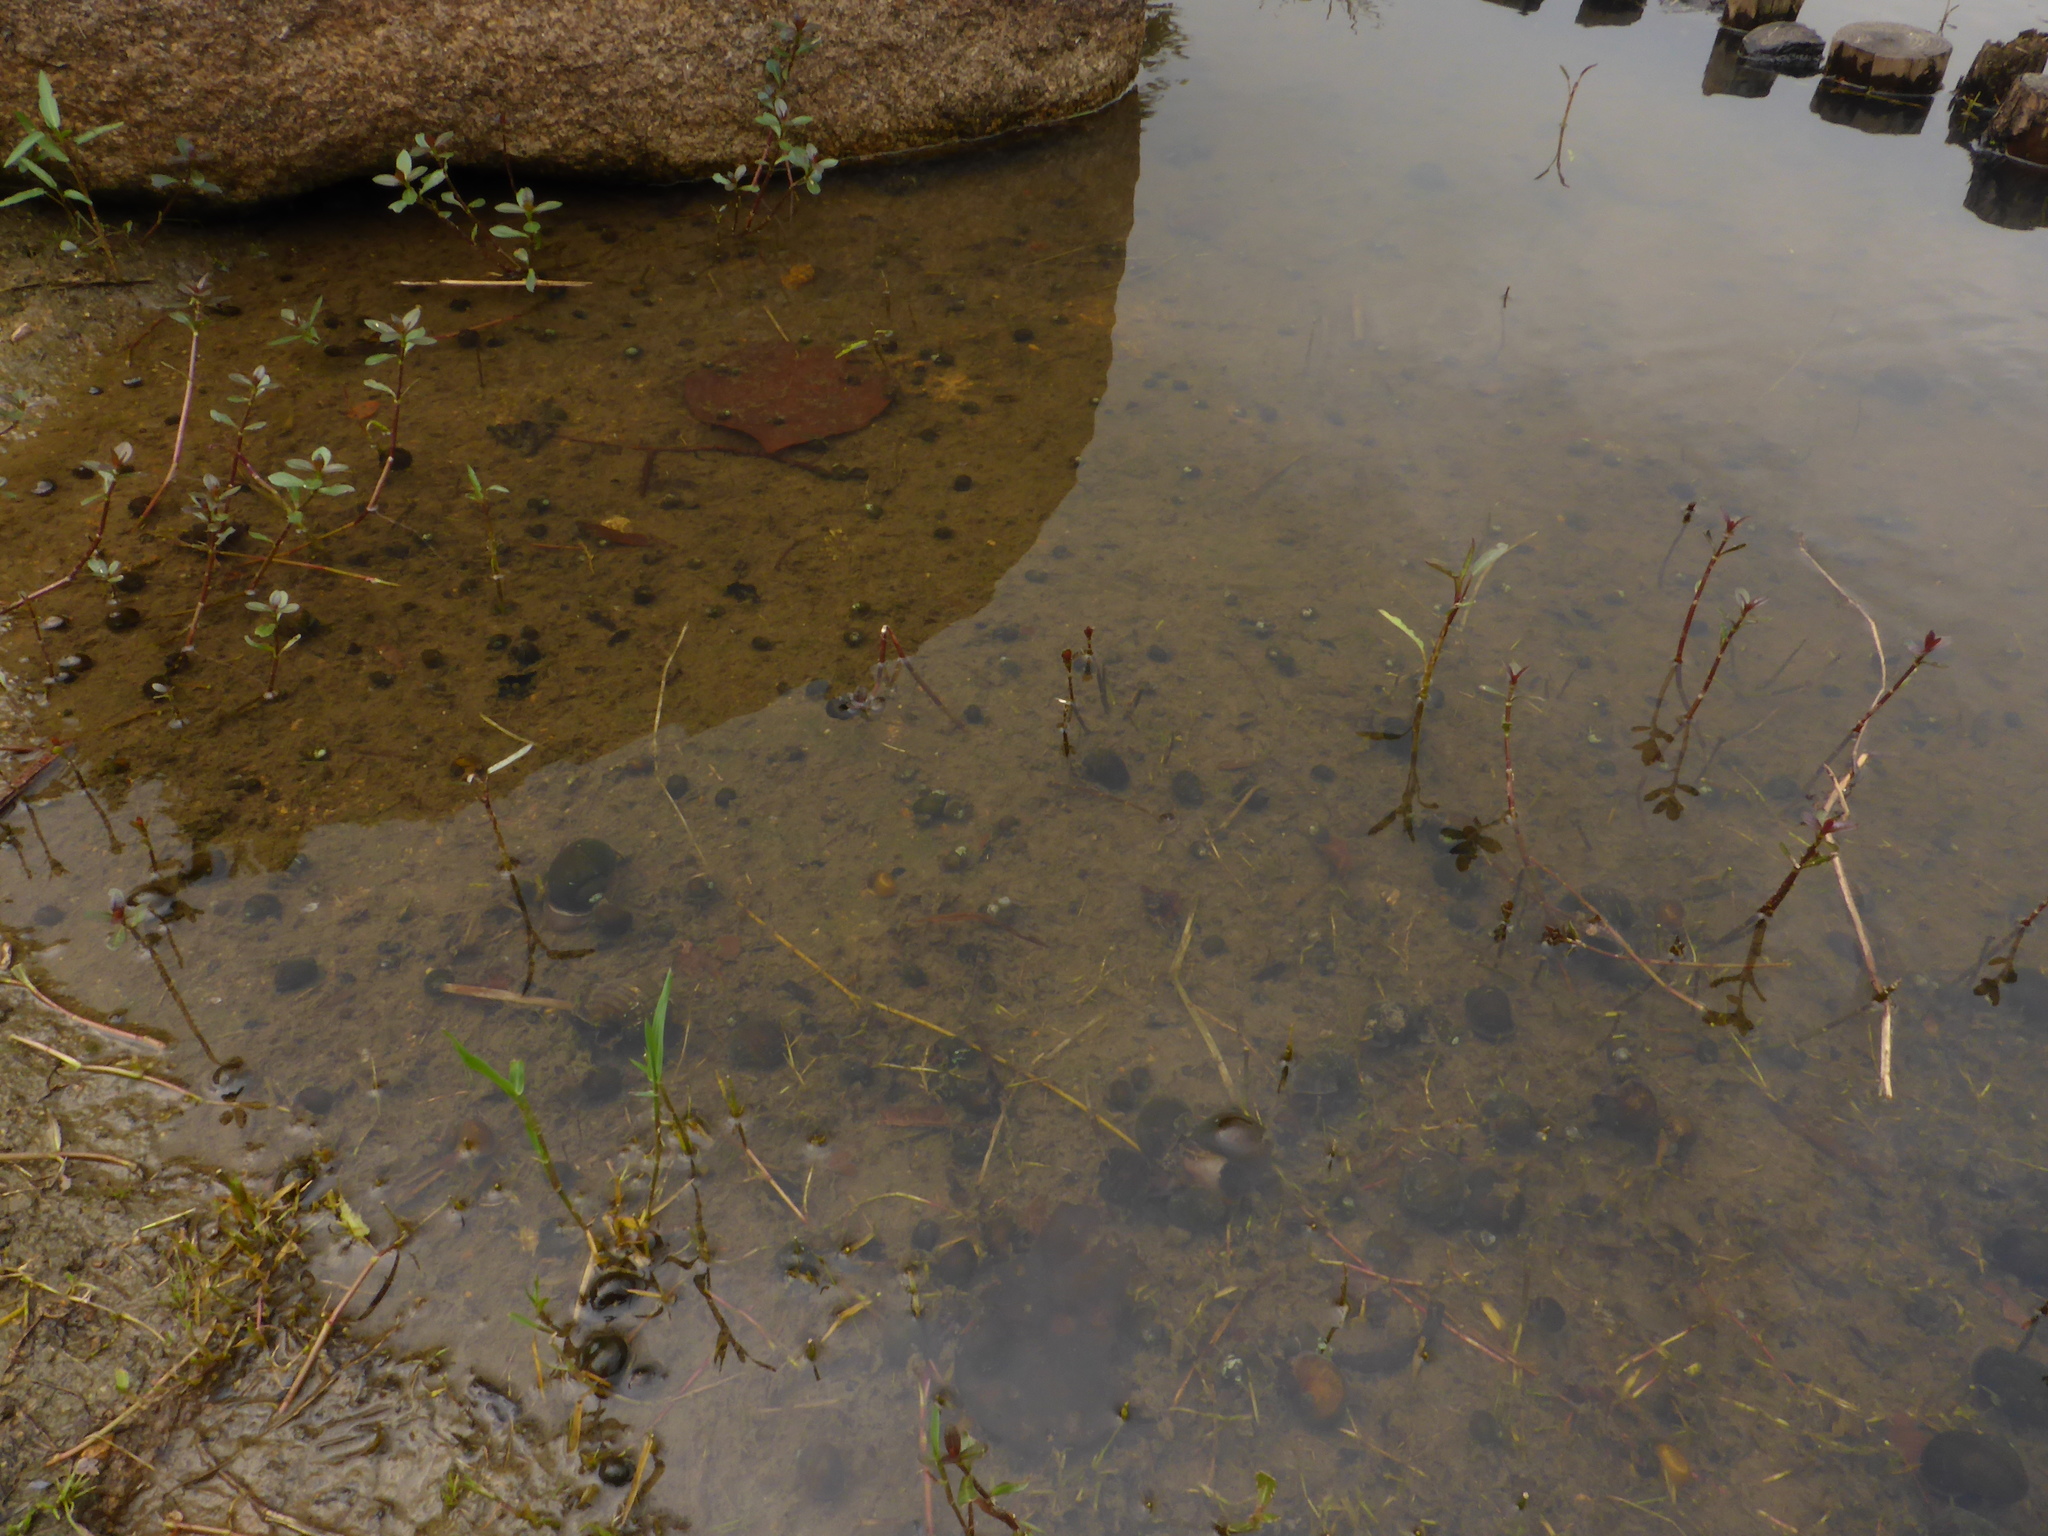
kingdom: Animalia
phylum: Mollusca
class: Gastropoda
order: Architaenioglossa
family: Ampullariidae
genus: Pomacea
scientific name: Pomacea canaliculata
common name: Channeled applesnail
